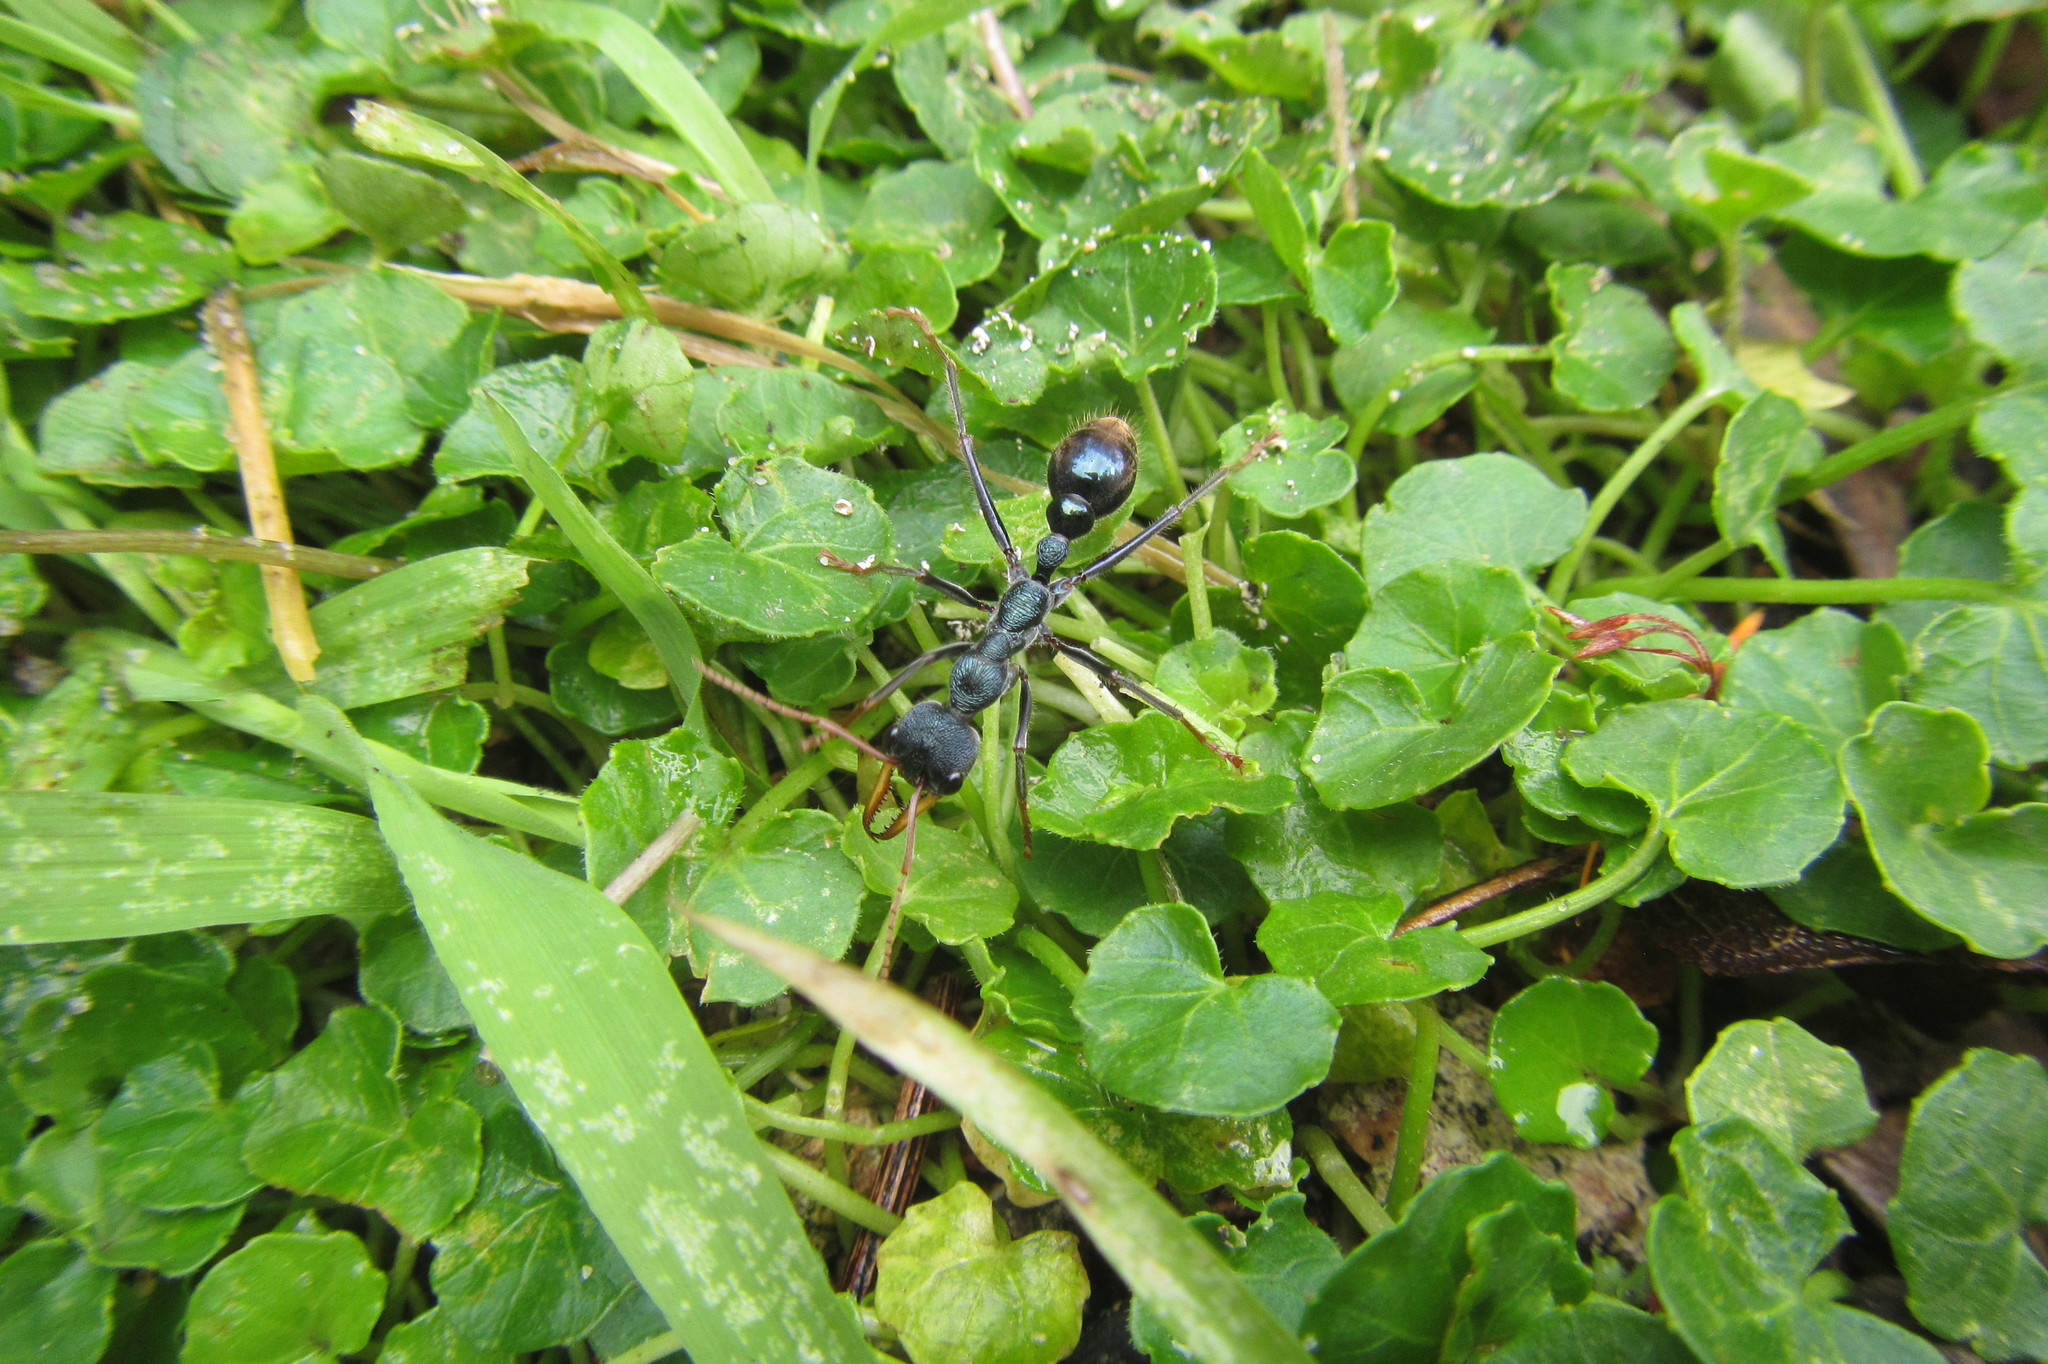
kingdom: Animalia
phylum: Arthropoda
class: Insecta
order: Hymenoptera
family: Formicidae
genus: Myrmecia
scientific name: Myrmecia tarsata
